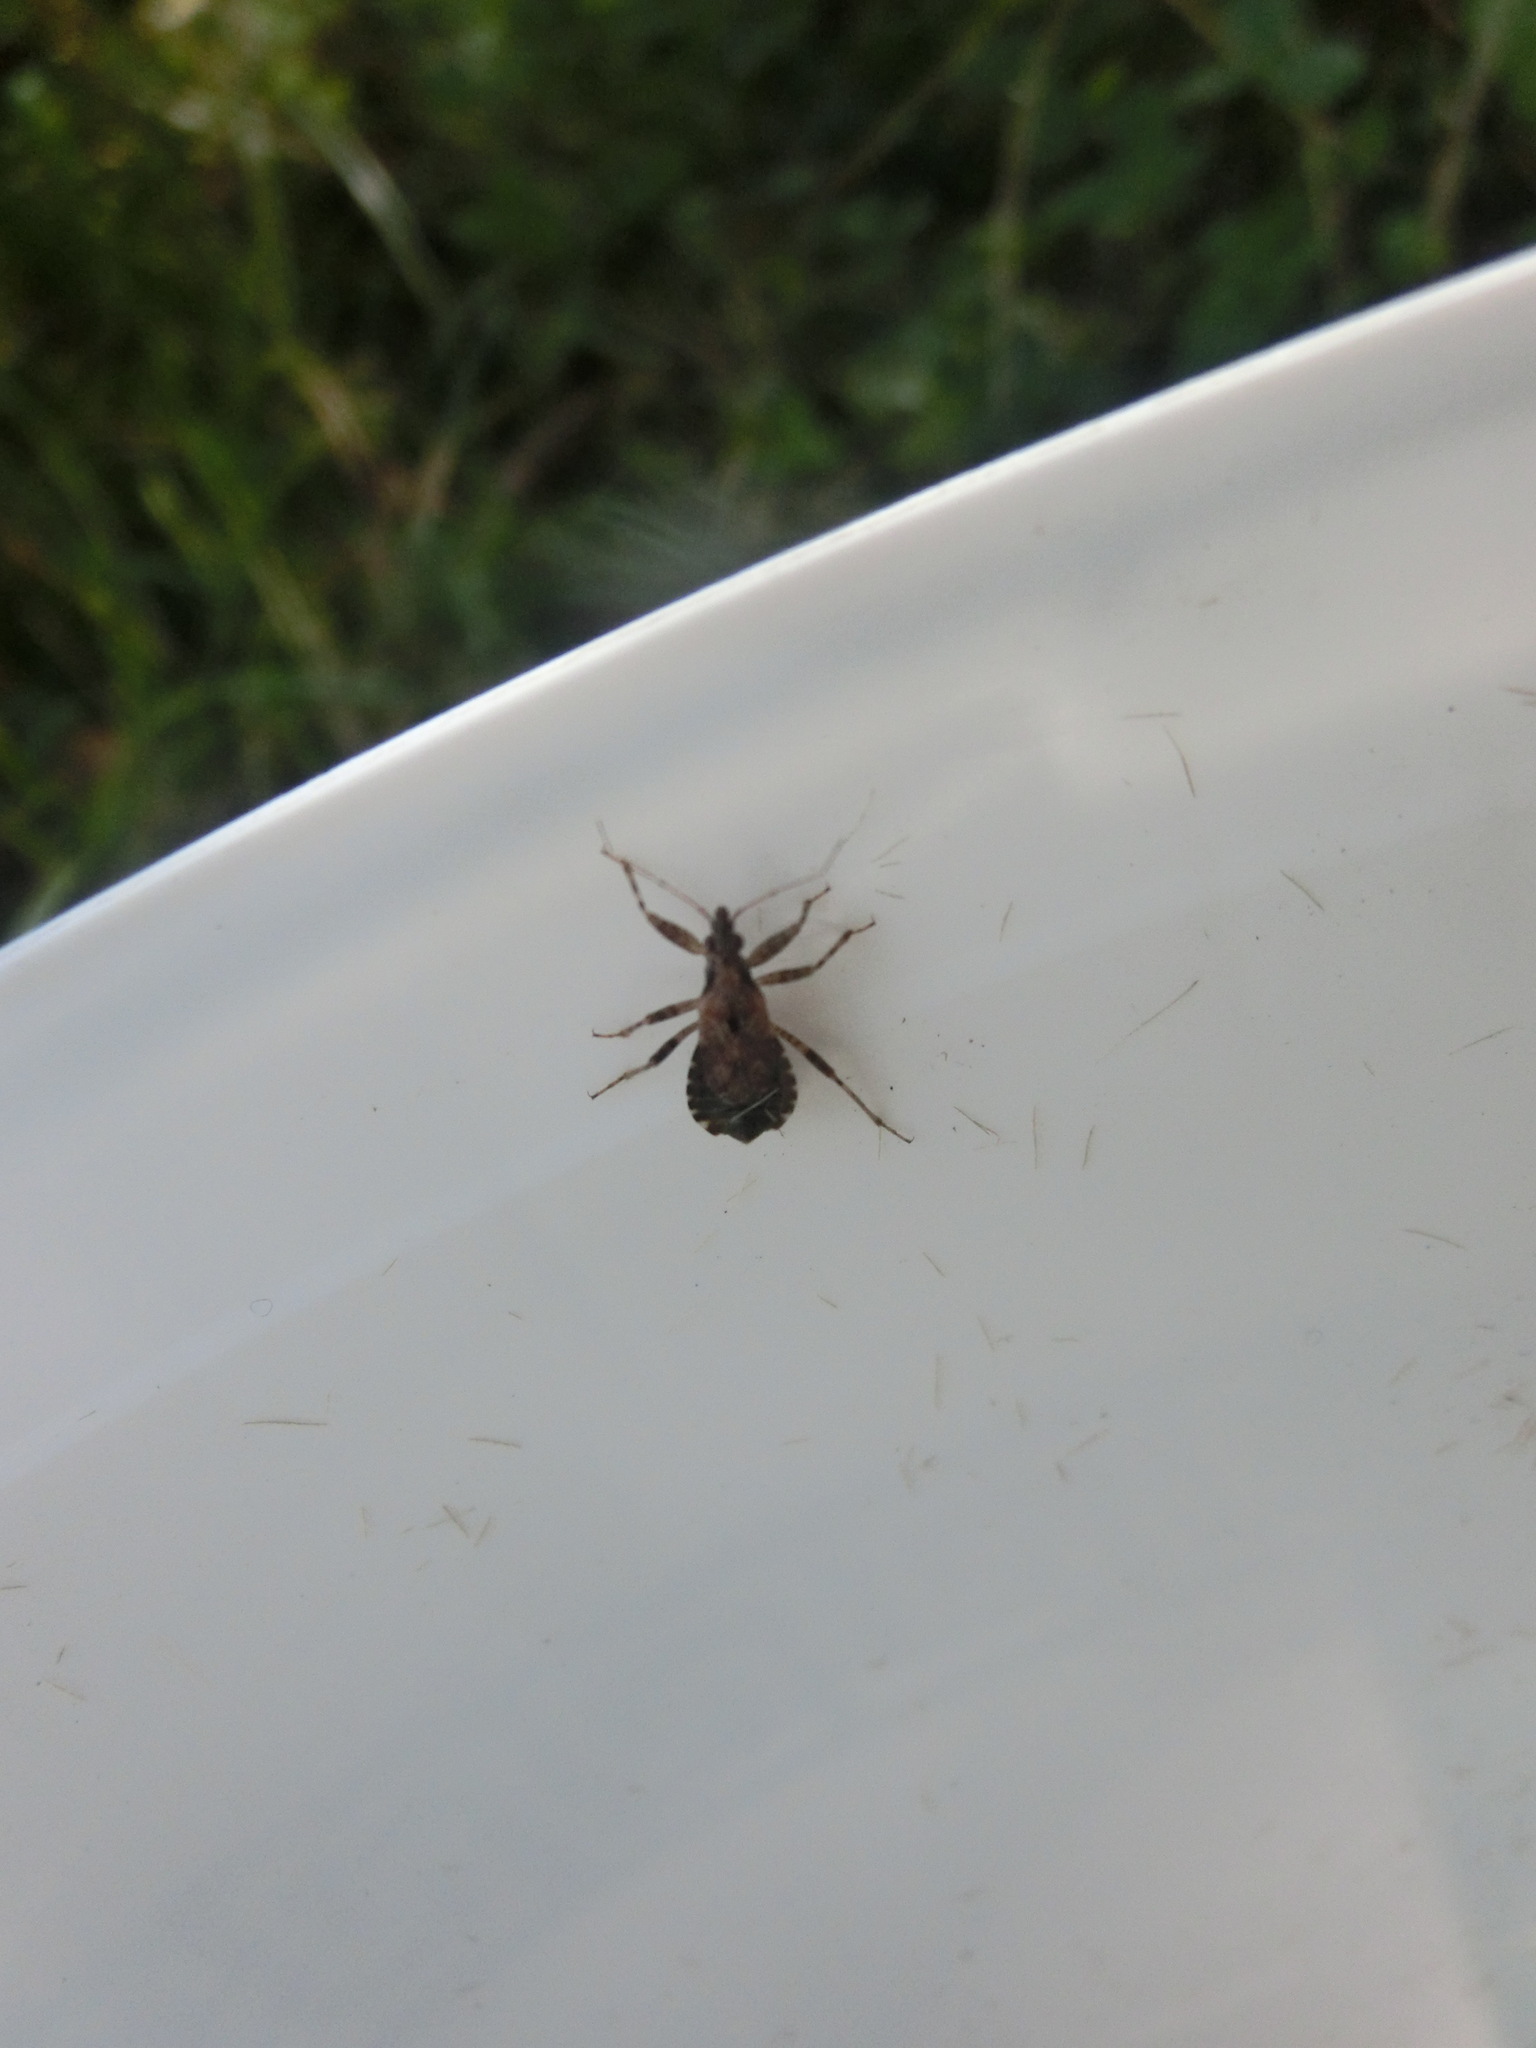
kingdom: Animalia
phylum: Arthropoda
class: Insecta
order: Hemiptera
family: Nabidae
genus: Himacerus
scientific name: Himacerus mirmicoides
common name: Ant damsel bug
